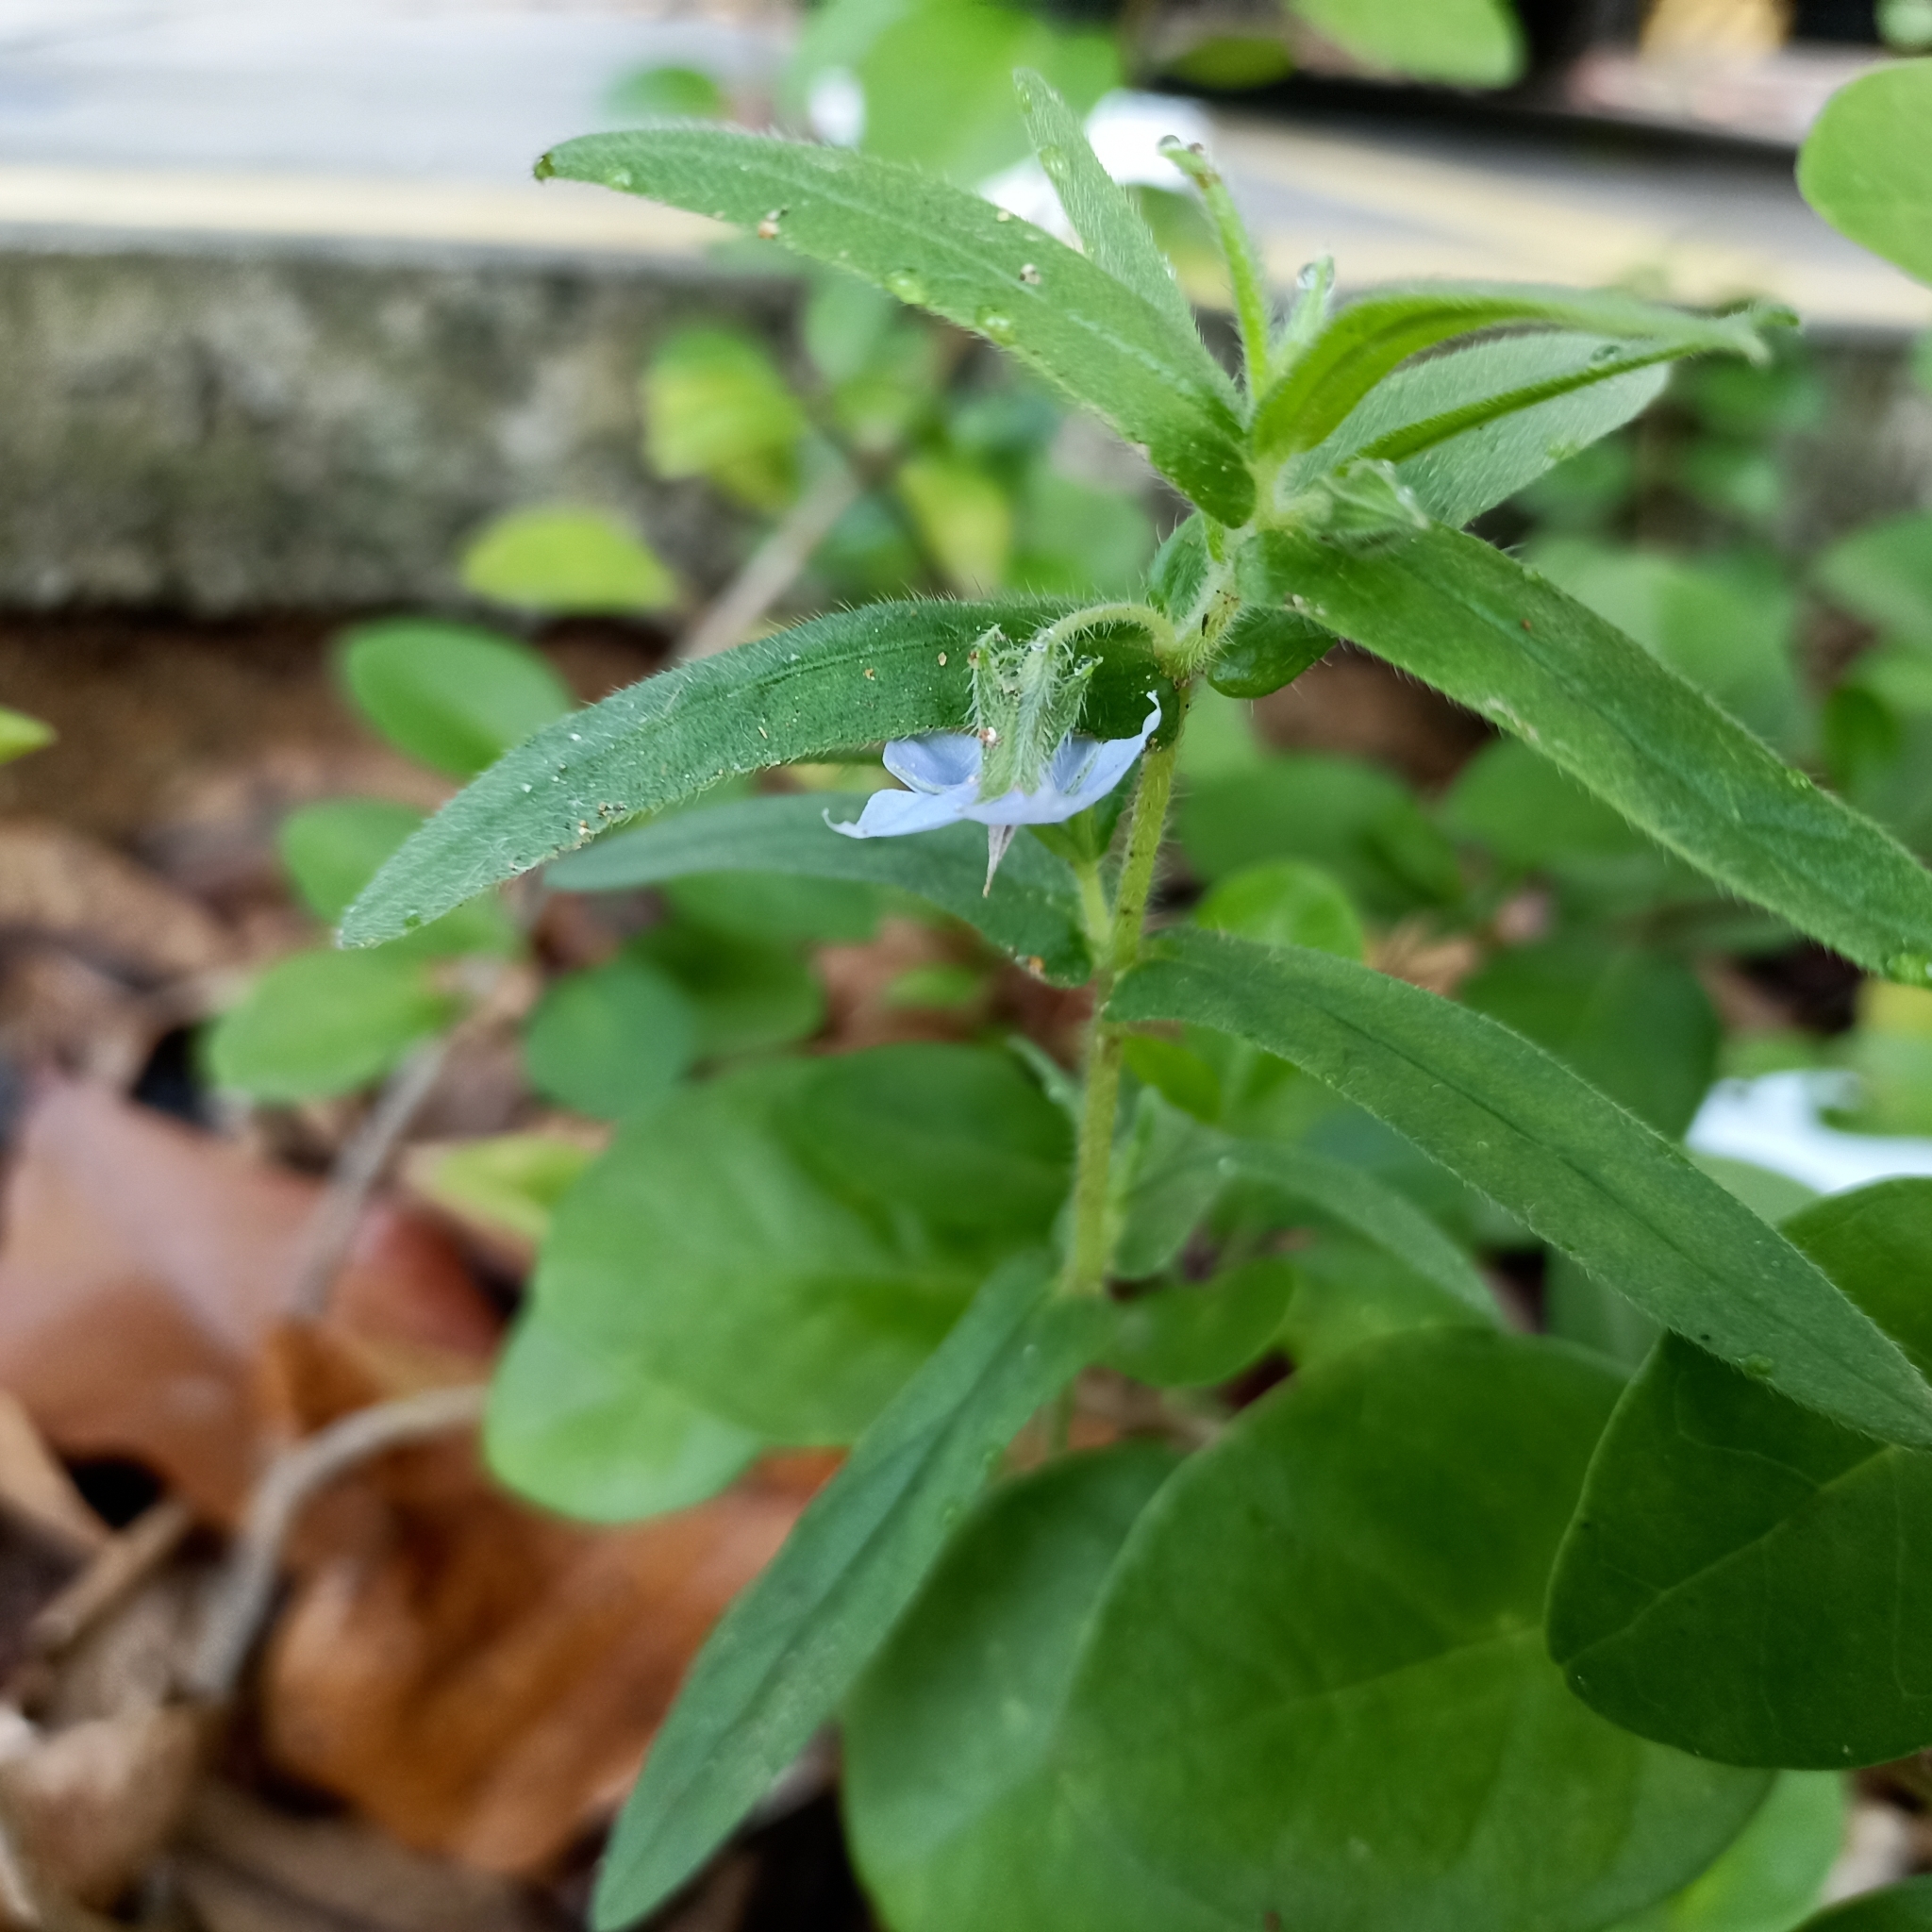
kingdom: Plantae
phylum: Tracheophyta
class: Magnoliopsida
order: Boraginales
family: Boraginaceae
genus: Trichodesma
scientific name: Trichodesma indicum
